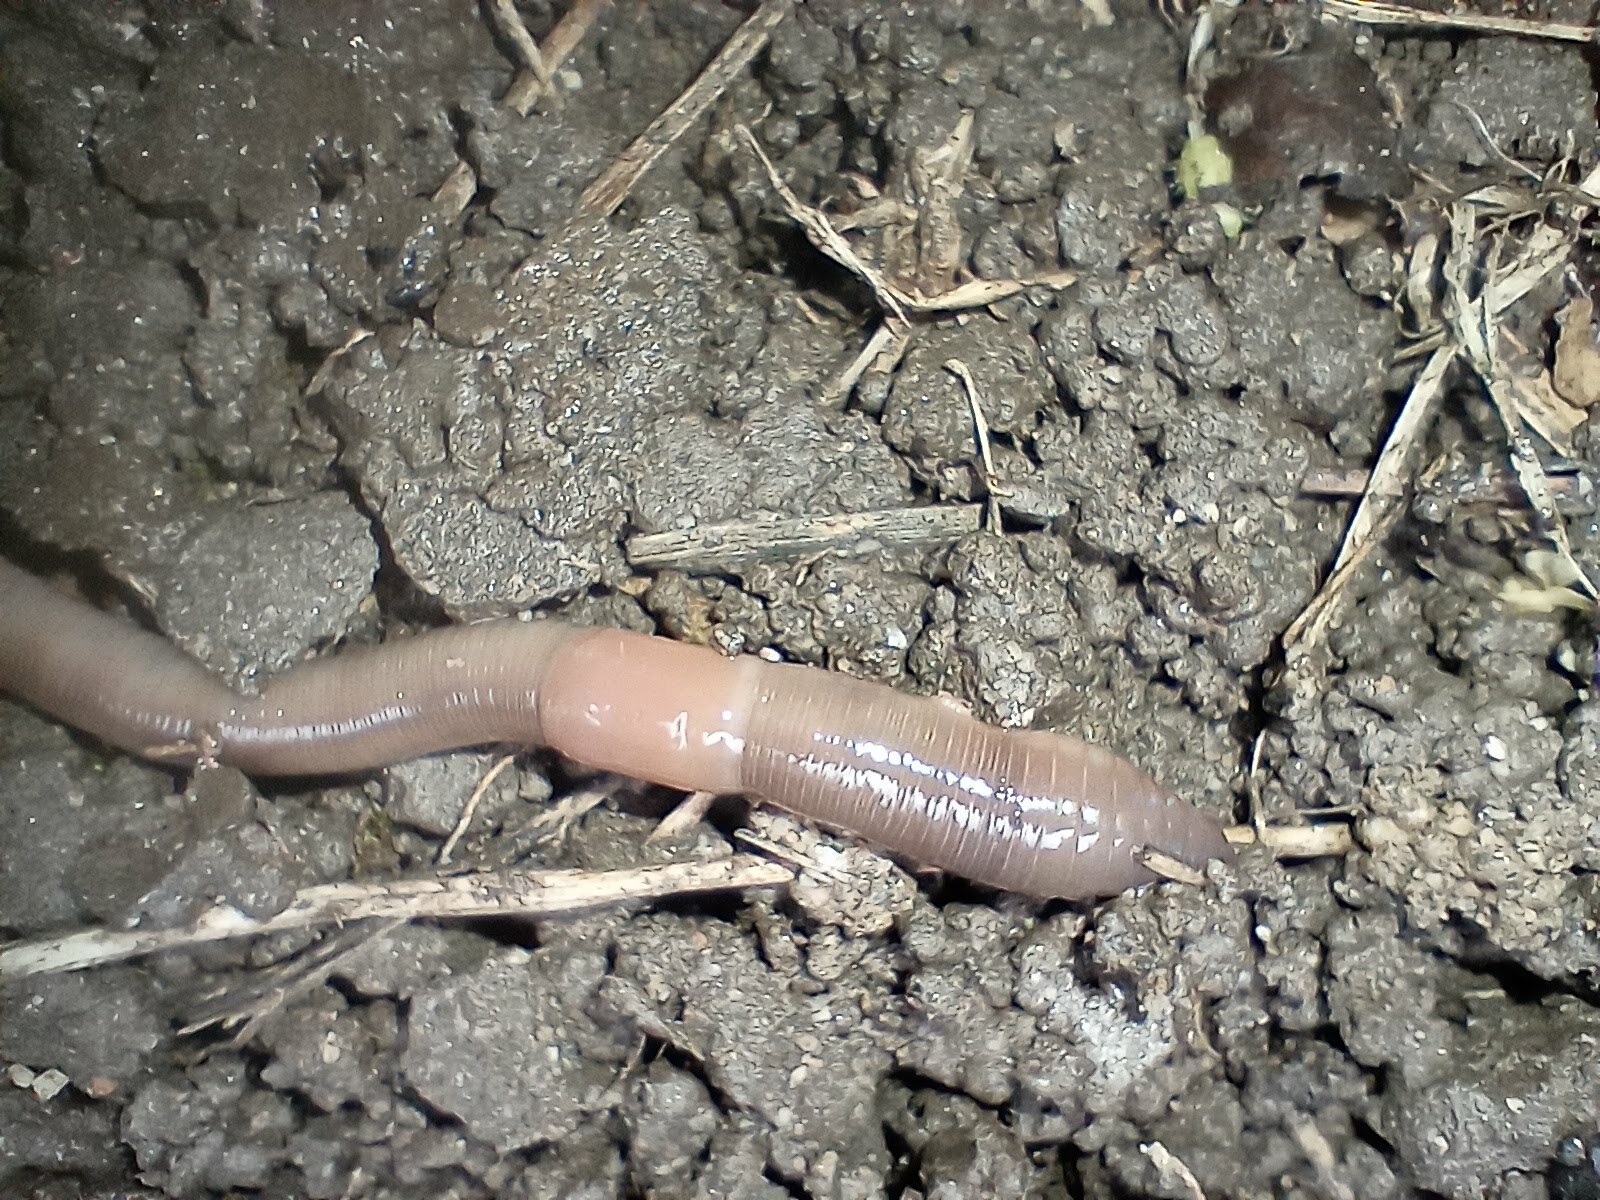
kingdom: Animalia
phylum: Annelida
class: Clitellata
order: Crassiclitellata
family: Lumbricidae
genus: Lumbricus
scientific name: Lumbricus terrestris
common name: Common earthworm
